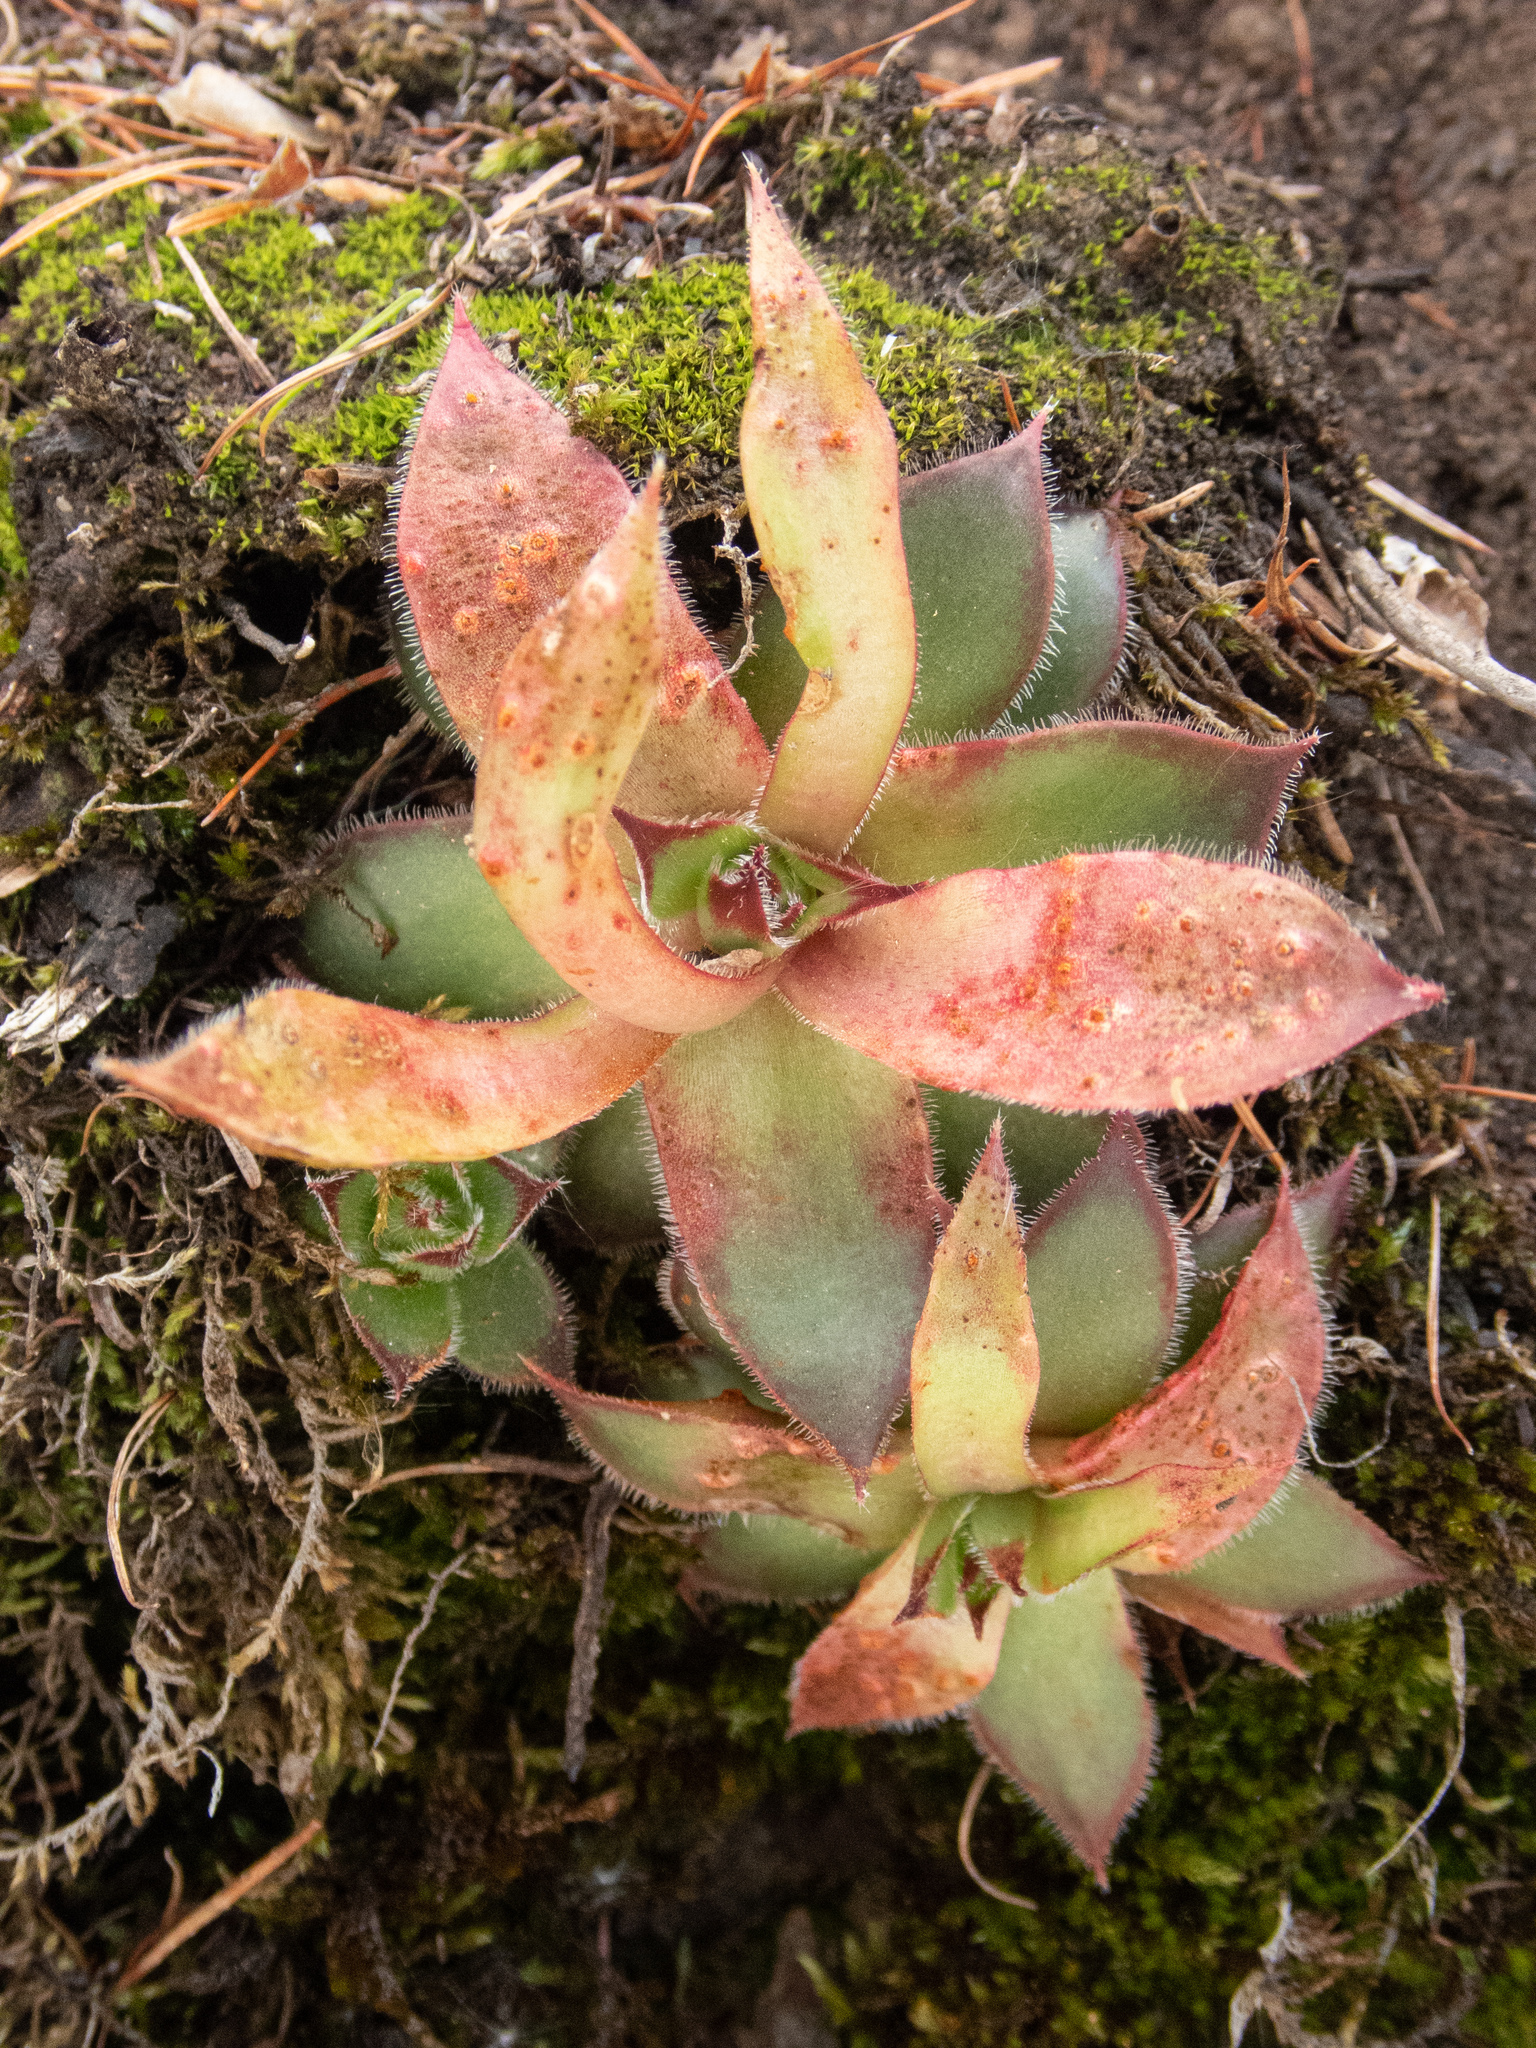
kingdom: Plantae
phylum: Tracheophyta
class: Magnoliopsida
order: Saxifragales
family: Crassulaceae
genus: Sempervivum
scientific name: Sempervivum tectorum
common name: House-leek
